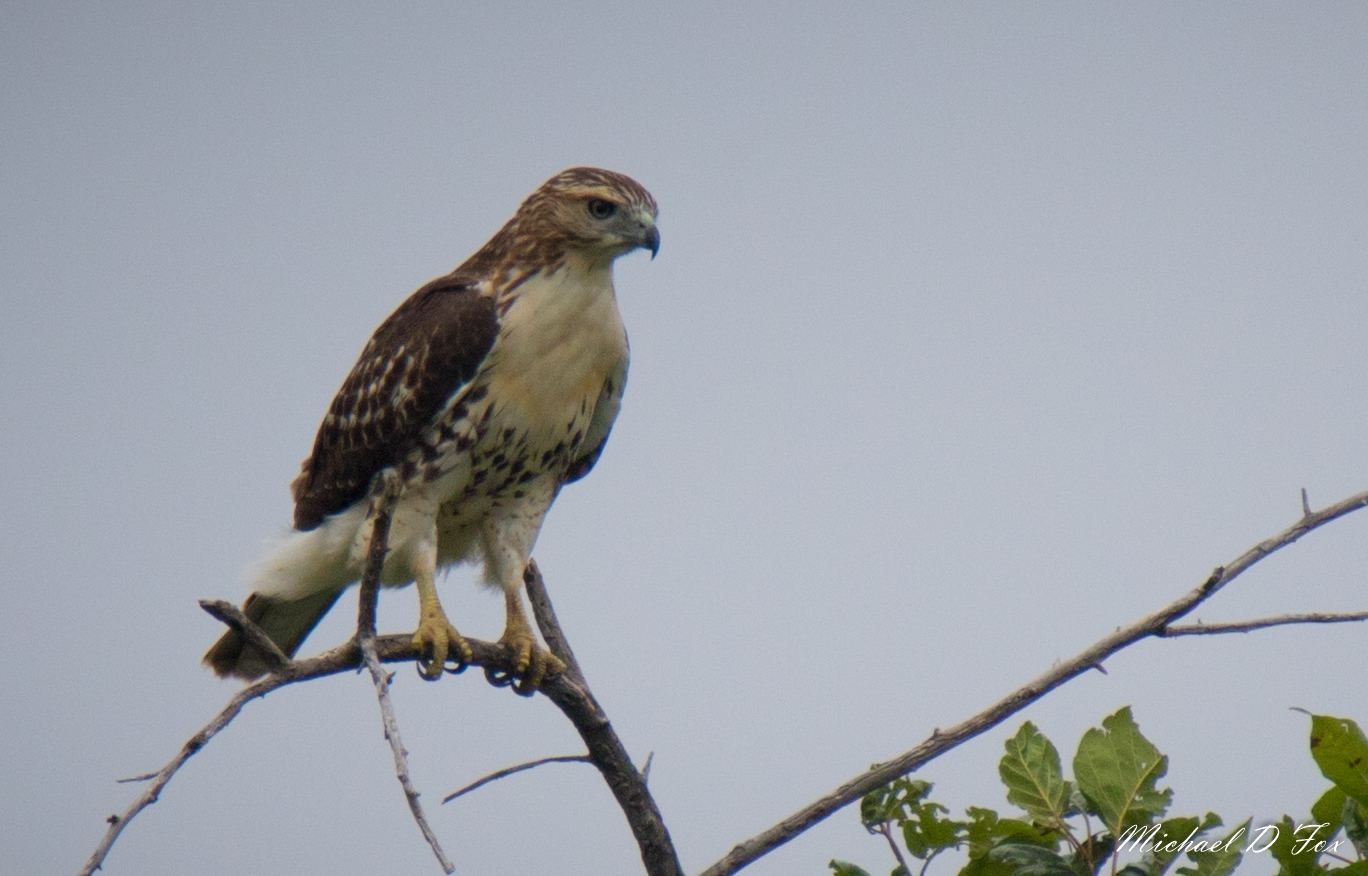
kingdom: Animalia
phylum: Chordata
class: Aves
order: Accipitriformes
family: Accipitridae
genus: Buteo
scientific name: Buteo jamaicensis
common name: Red-tailed hawk
